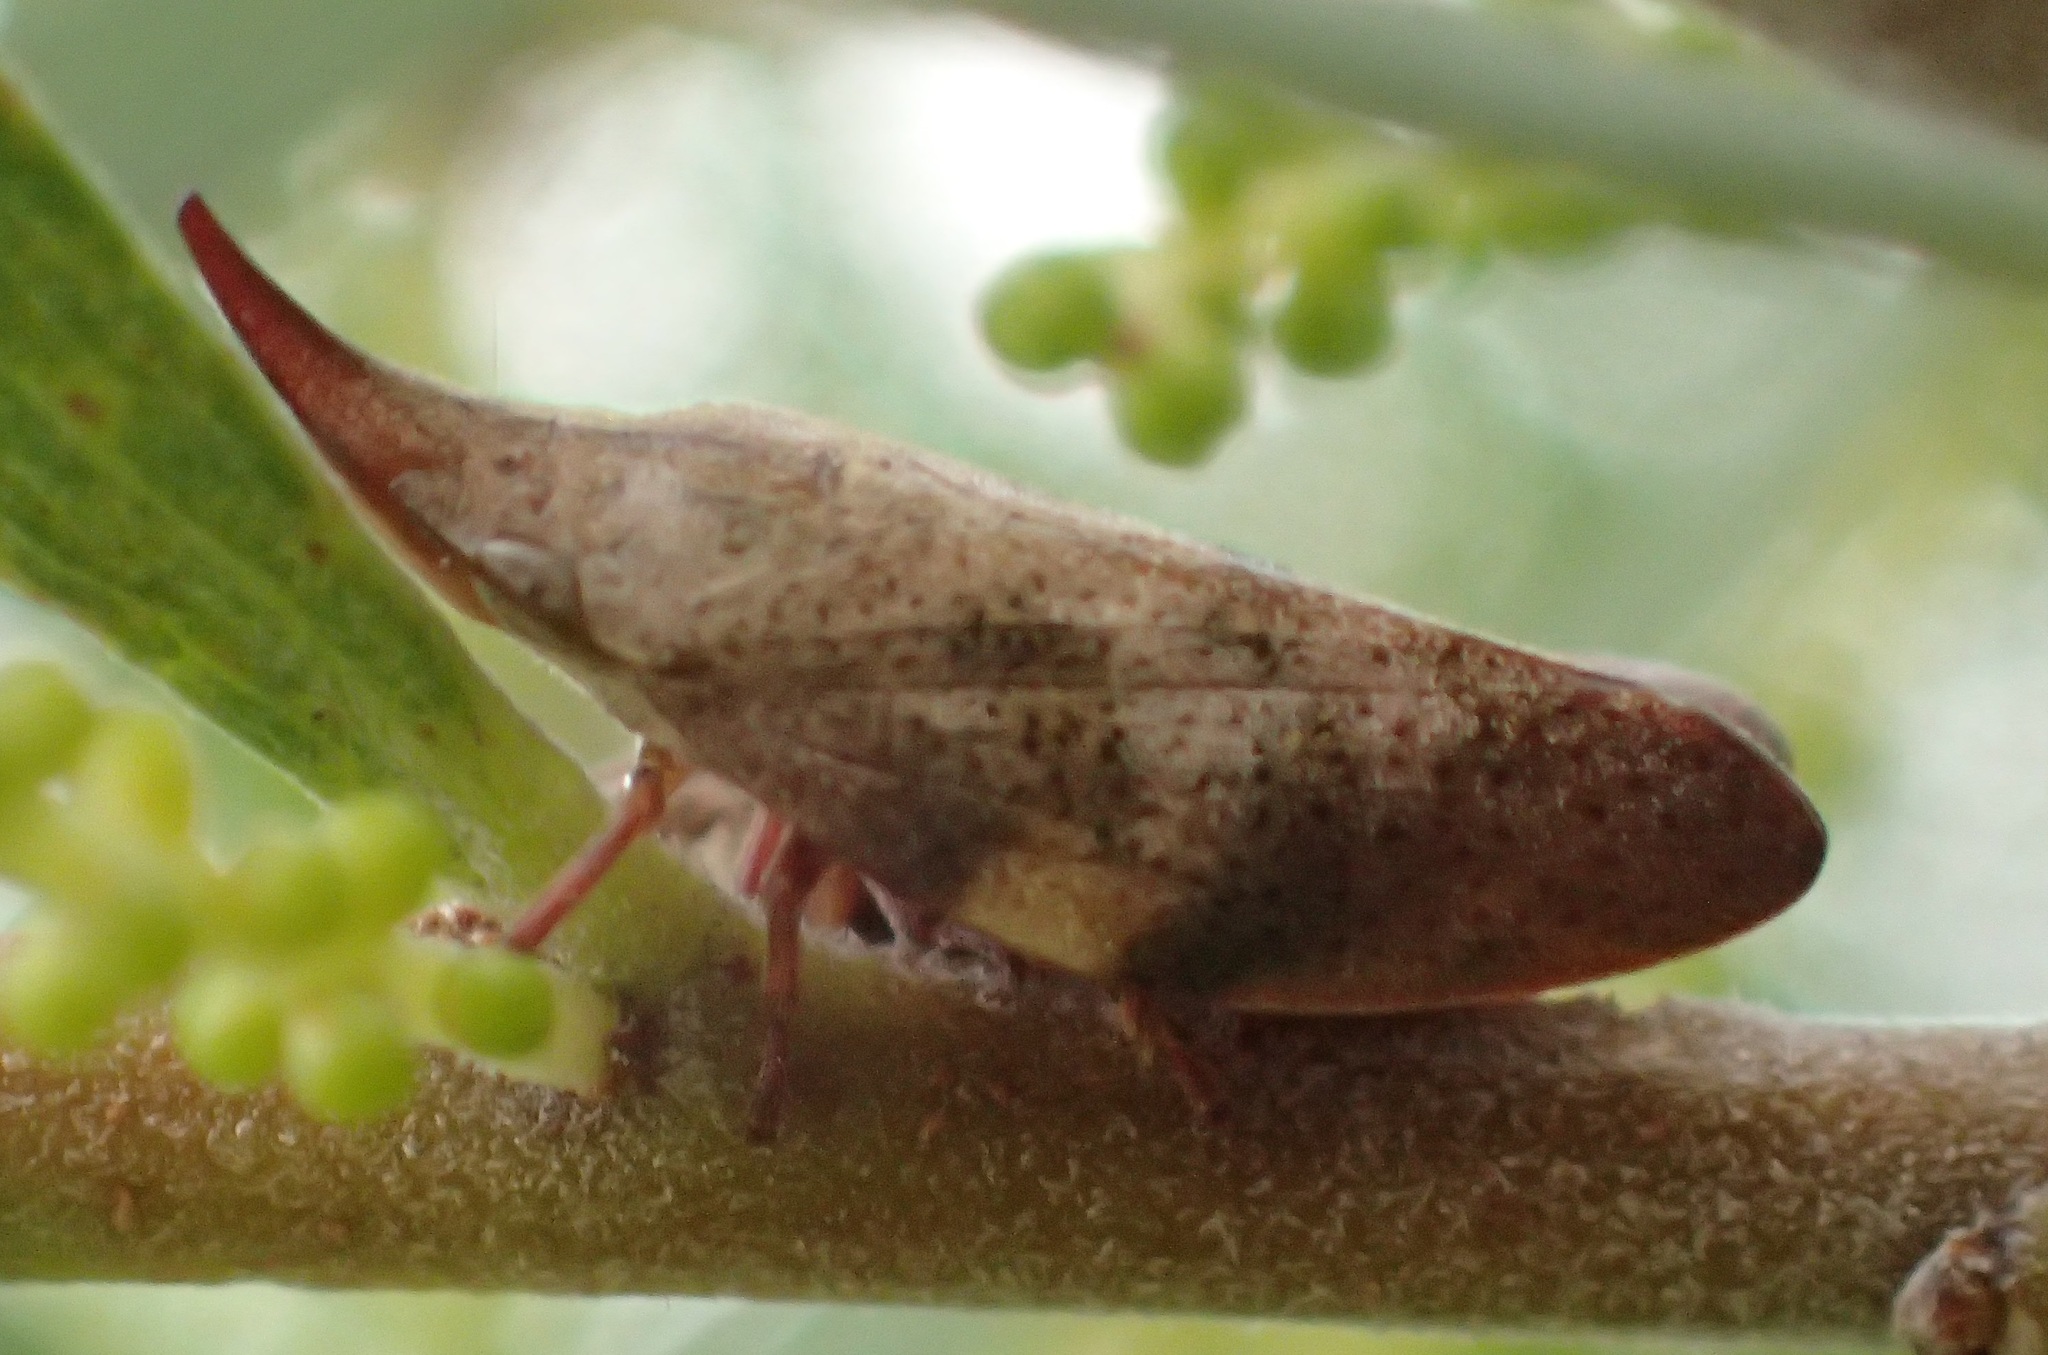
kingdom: Animalia
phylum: Arthropoda
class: Insecta
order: Hemiptera
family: Aphrophoridae
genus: Philagra
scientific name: Philagra parva
